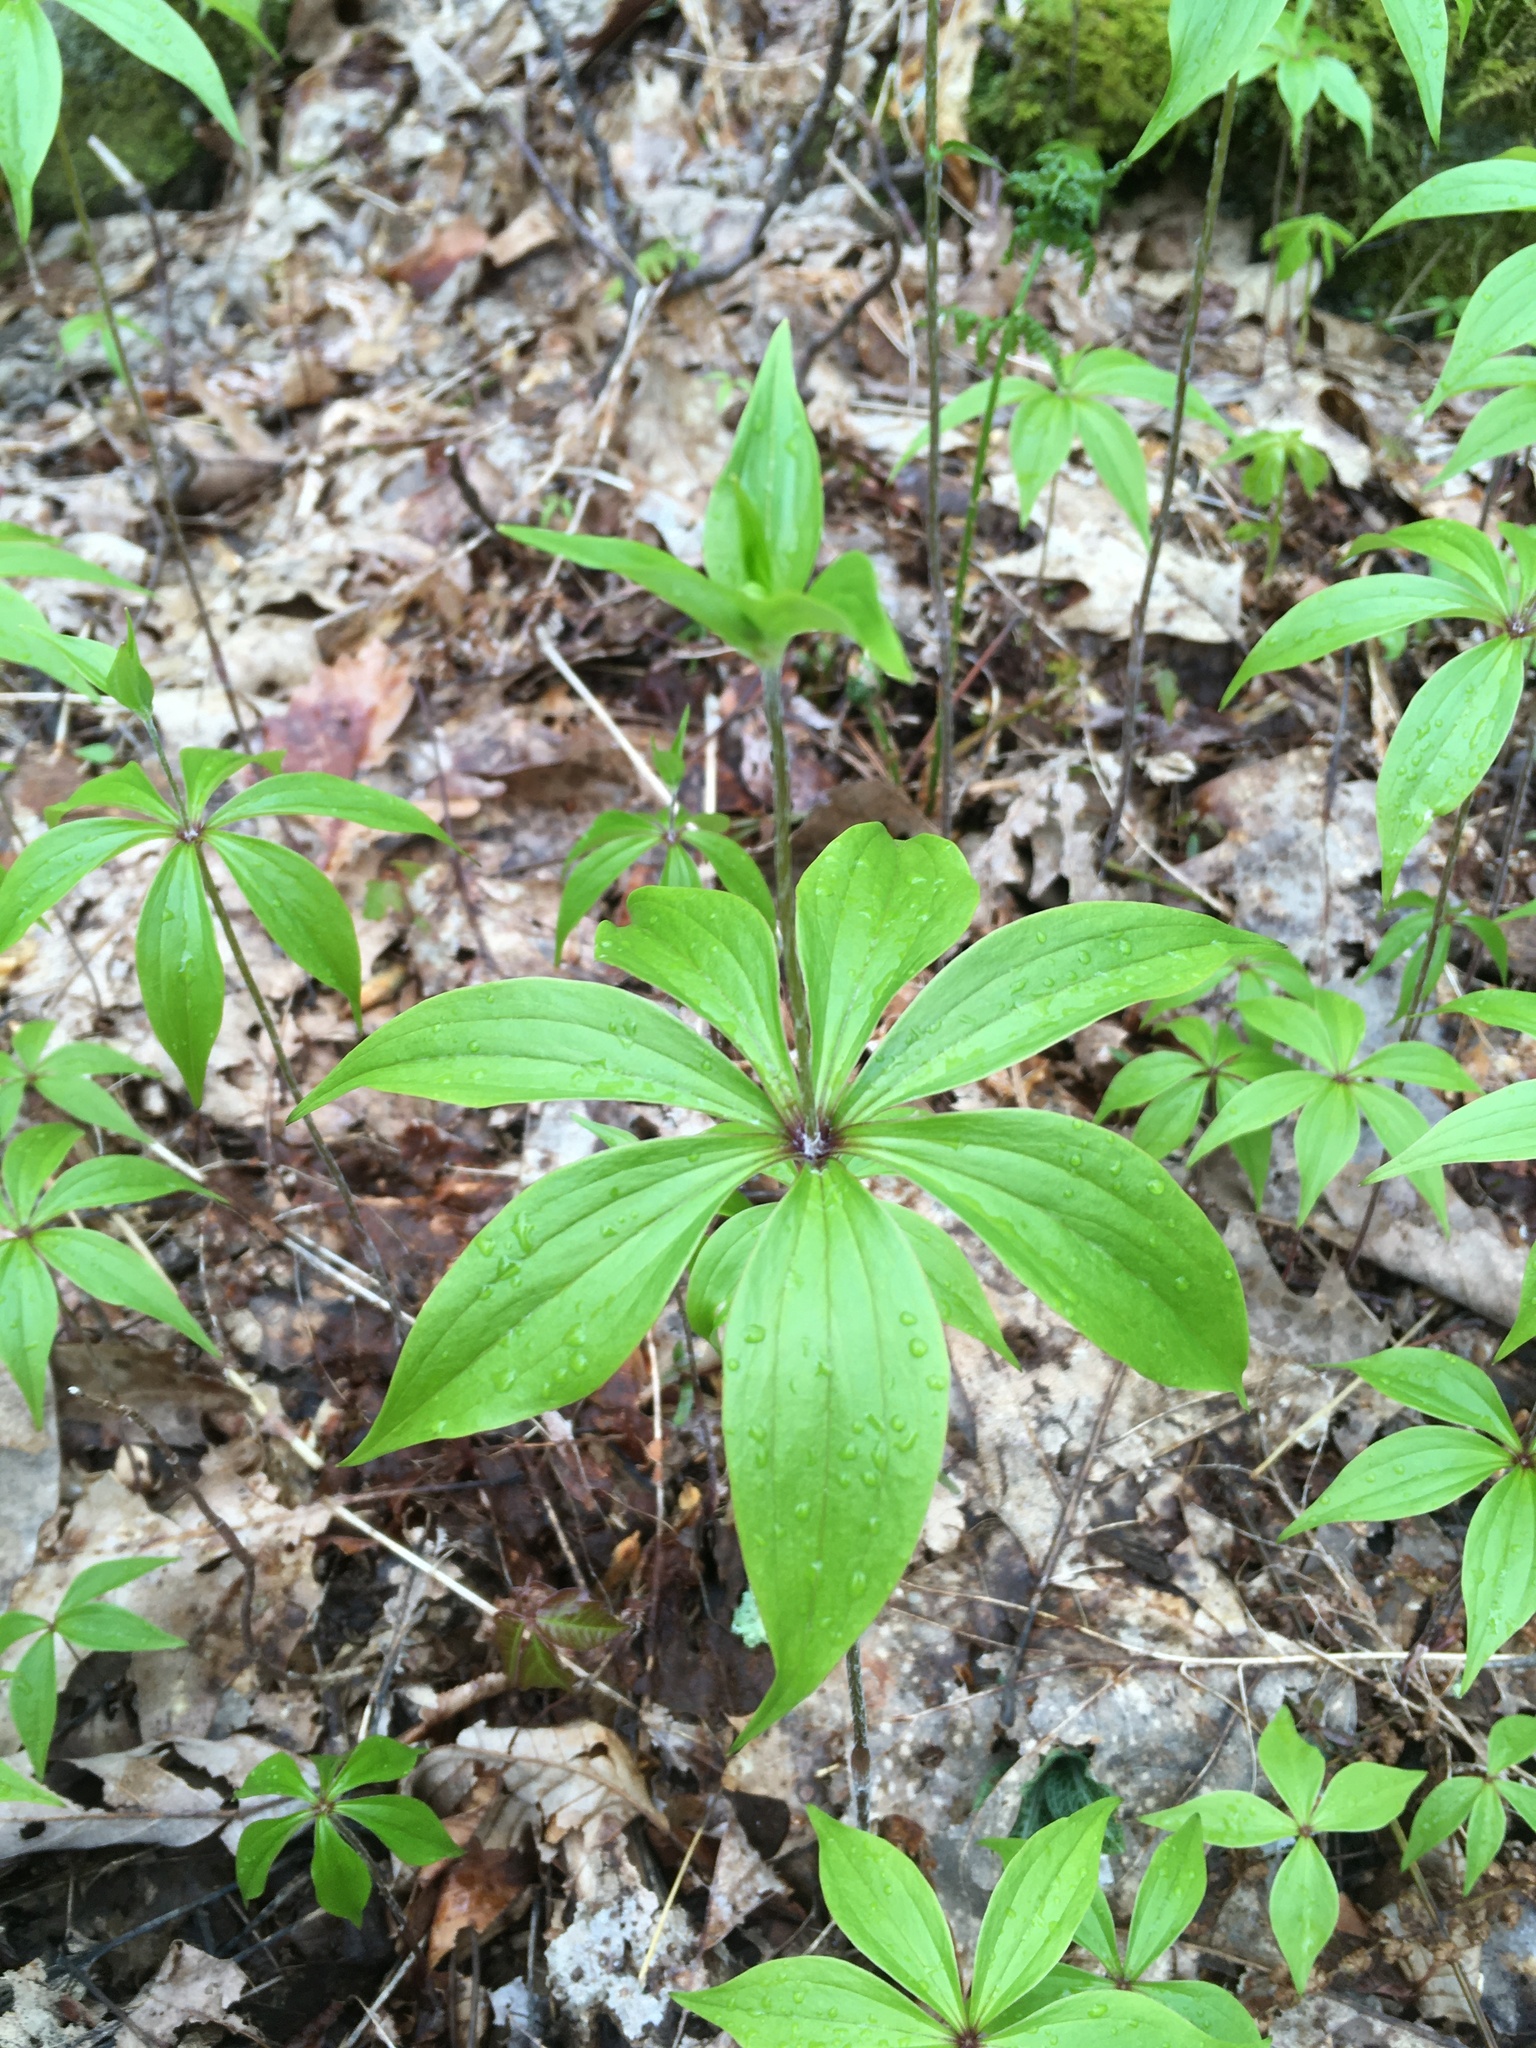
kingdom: Plantae
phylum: Tracheophyta
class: Liliopsida
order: Liliales
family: Liliaceae
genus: Medeola
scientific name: Medeola virginiana
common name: Indian cucumber-root
